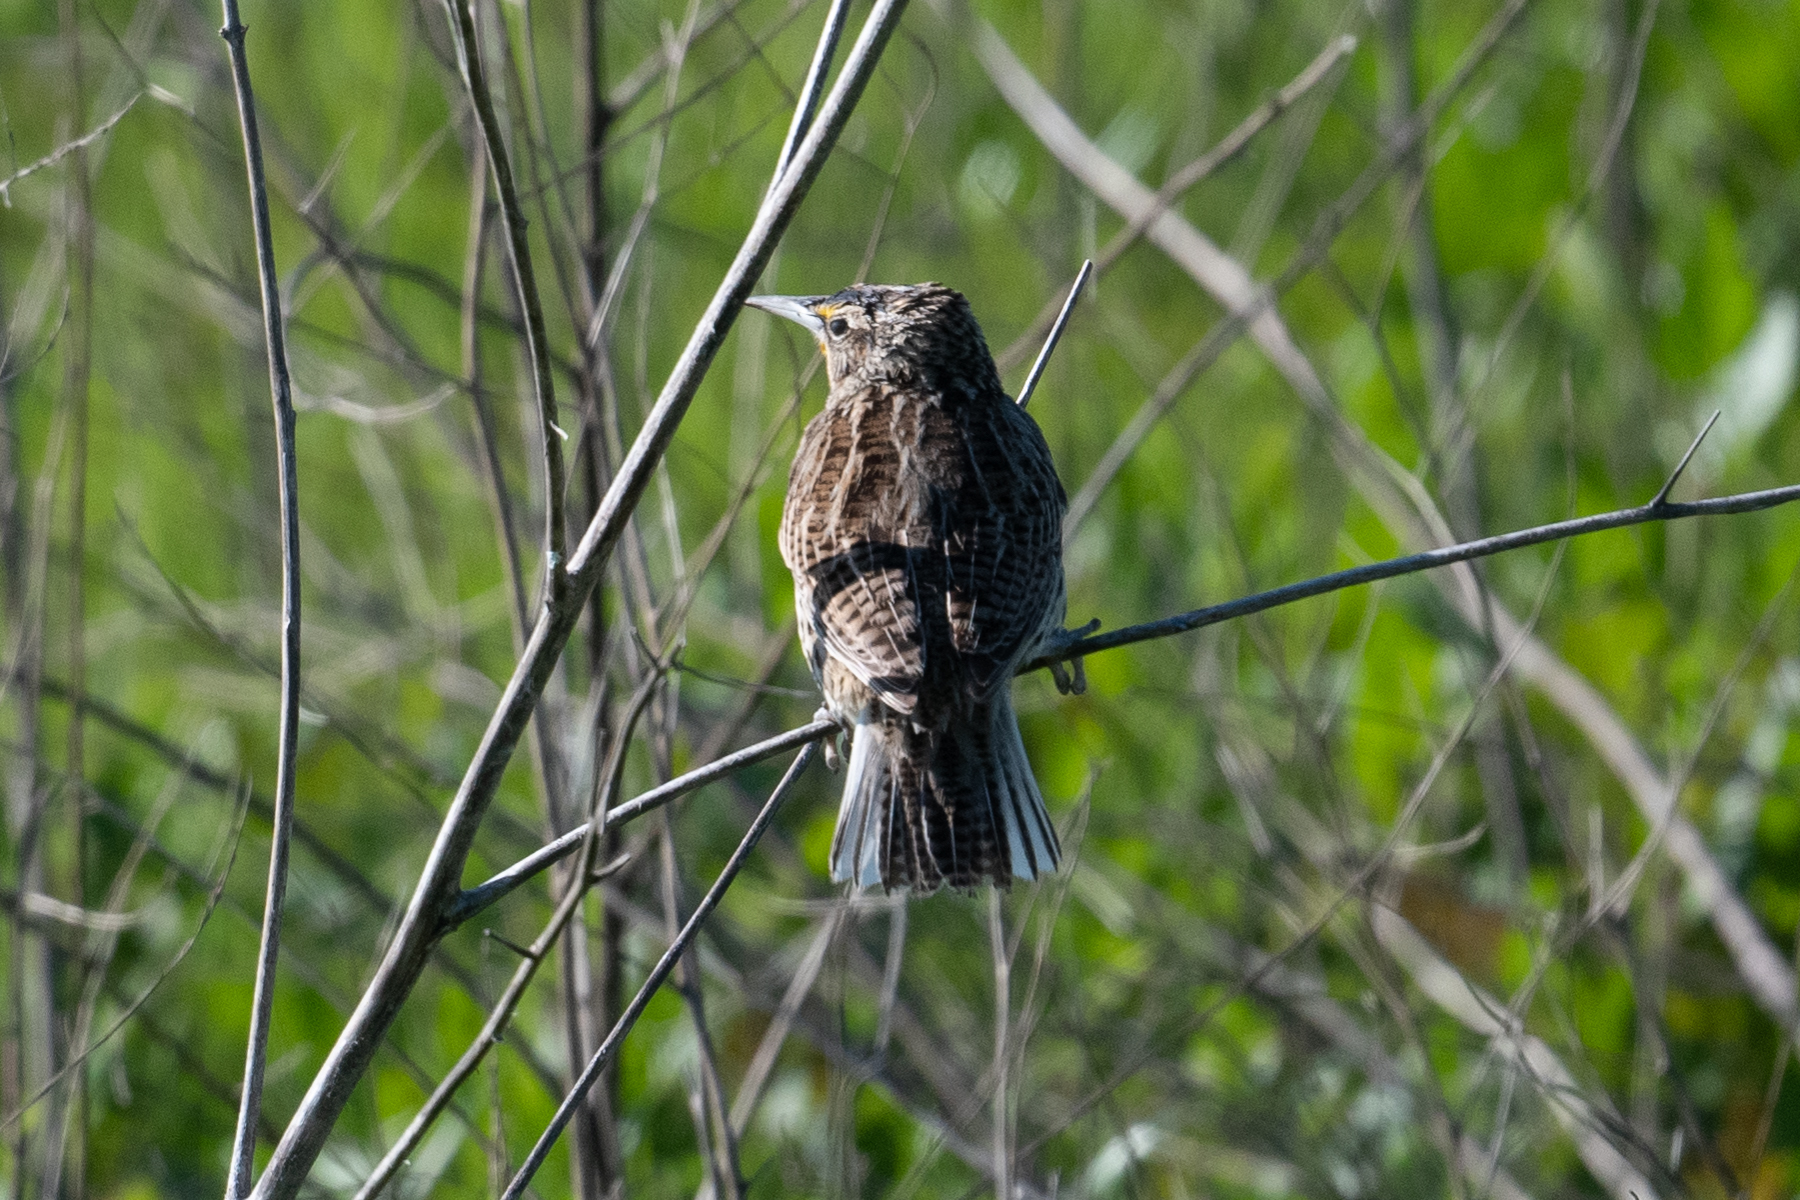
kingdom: Animalia
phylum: Chordata
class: Aves
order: Passeriformes
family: Icteridae
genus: Sturnella
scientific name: Sturnella neglecta
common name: Western meadowlark
